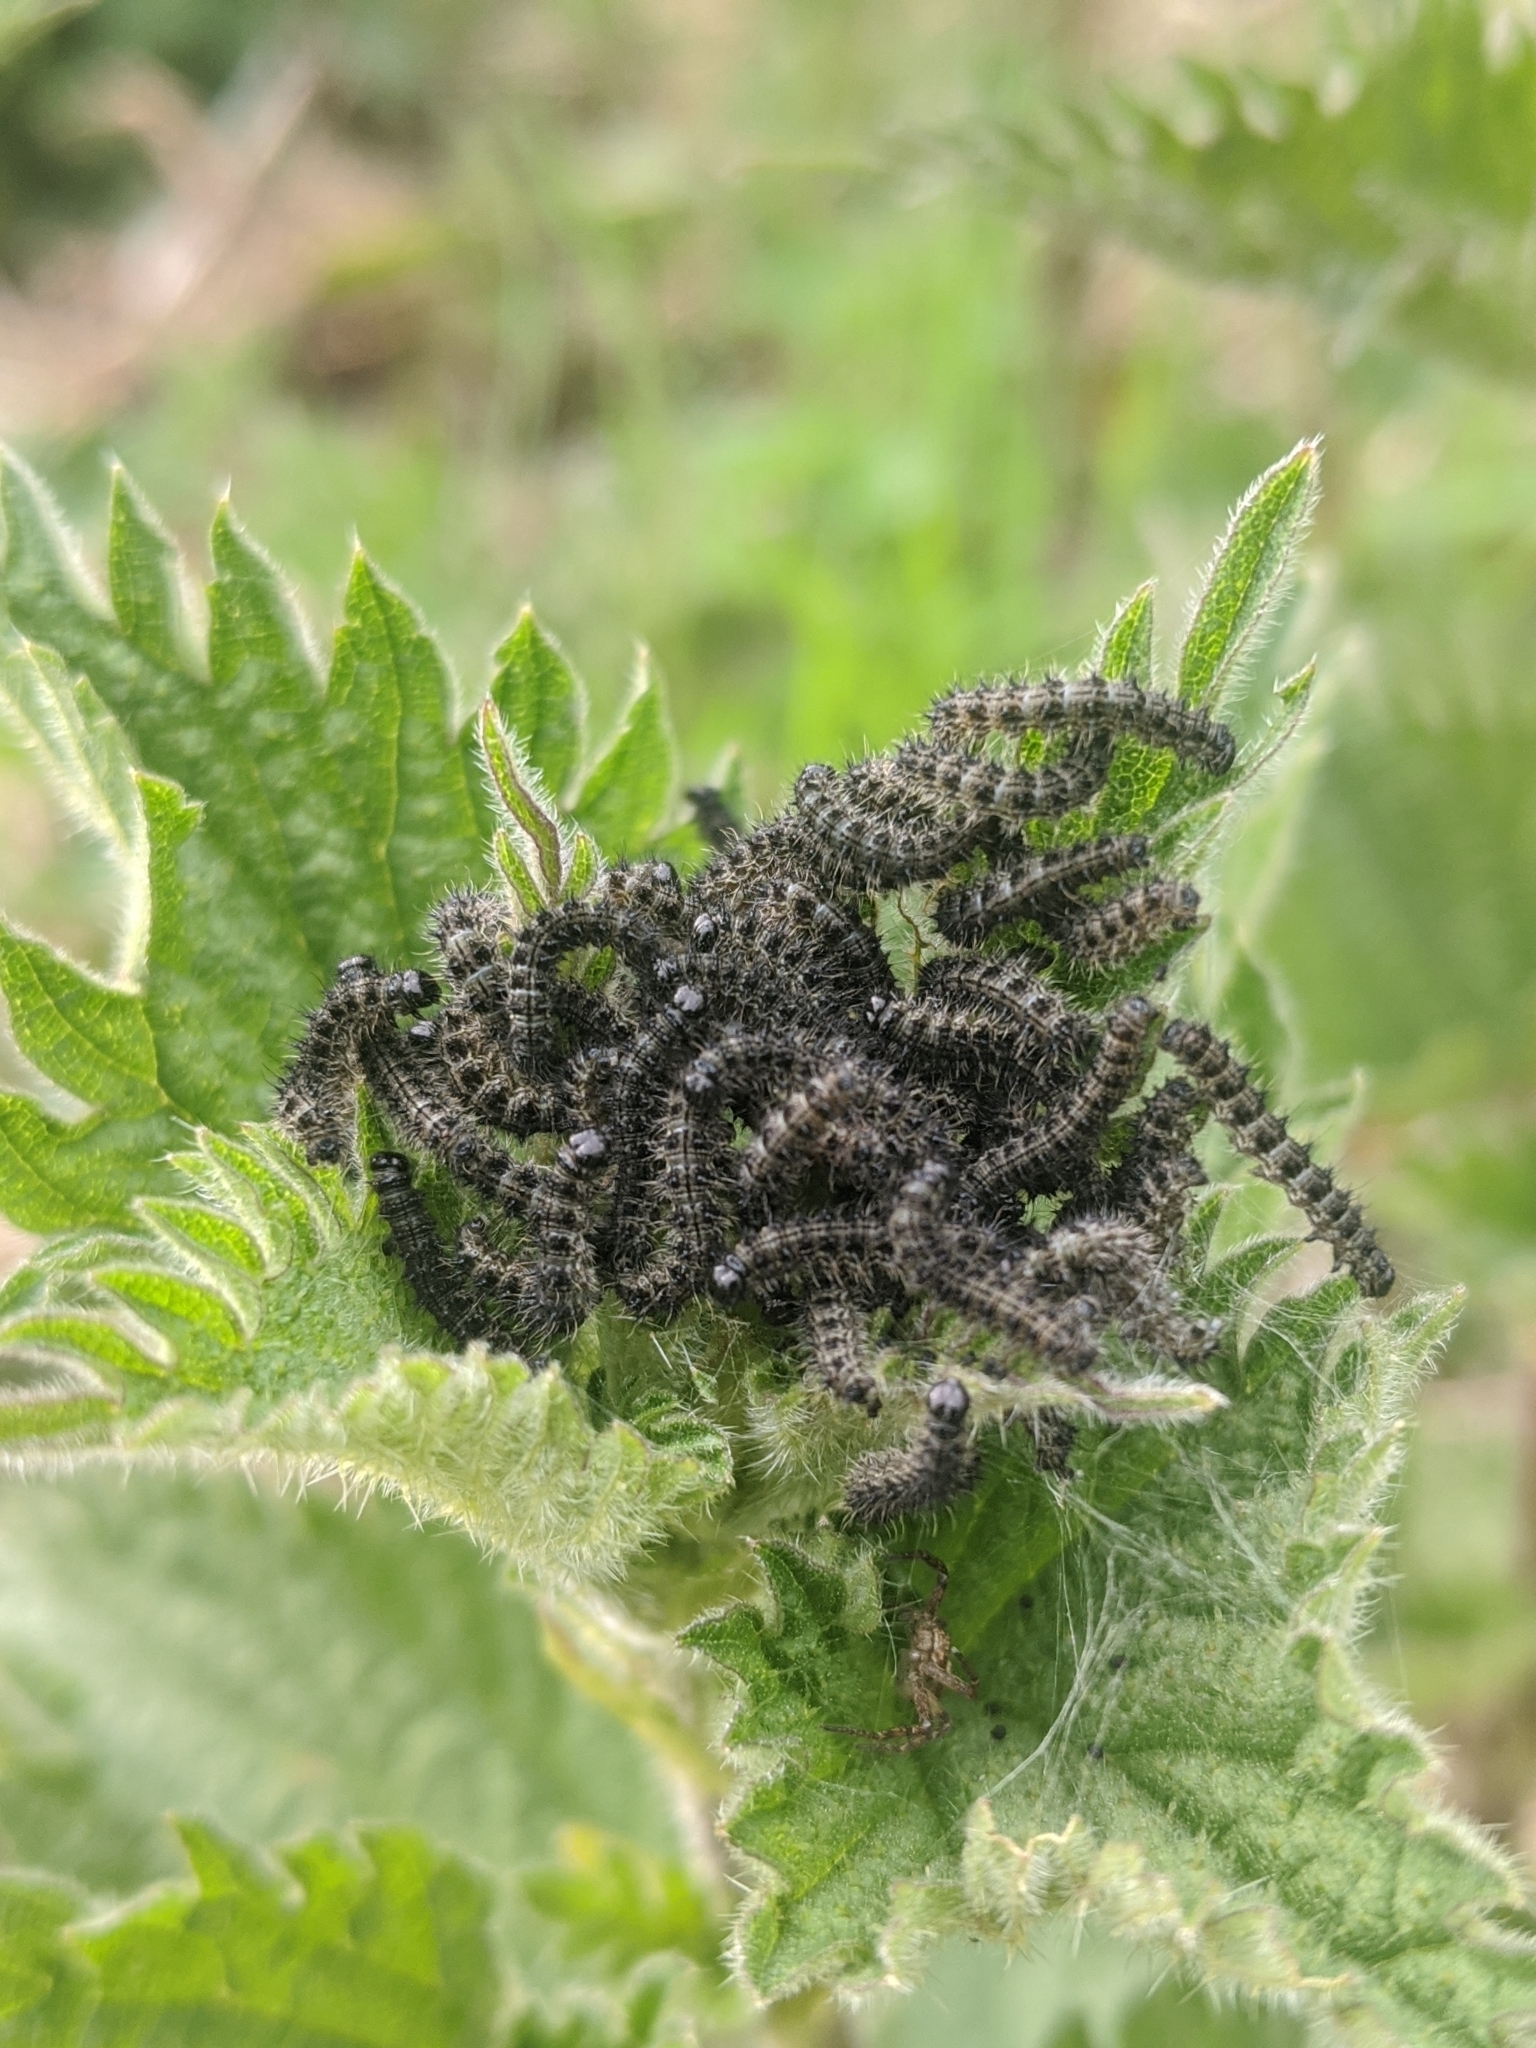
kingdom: Animalia
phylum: Arthropoda
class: Insecta
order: Lepidoptera
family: Nymphalidae
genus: Aglais
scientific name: Aglais urticae
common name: Small tortoiseshell
